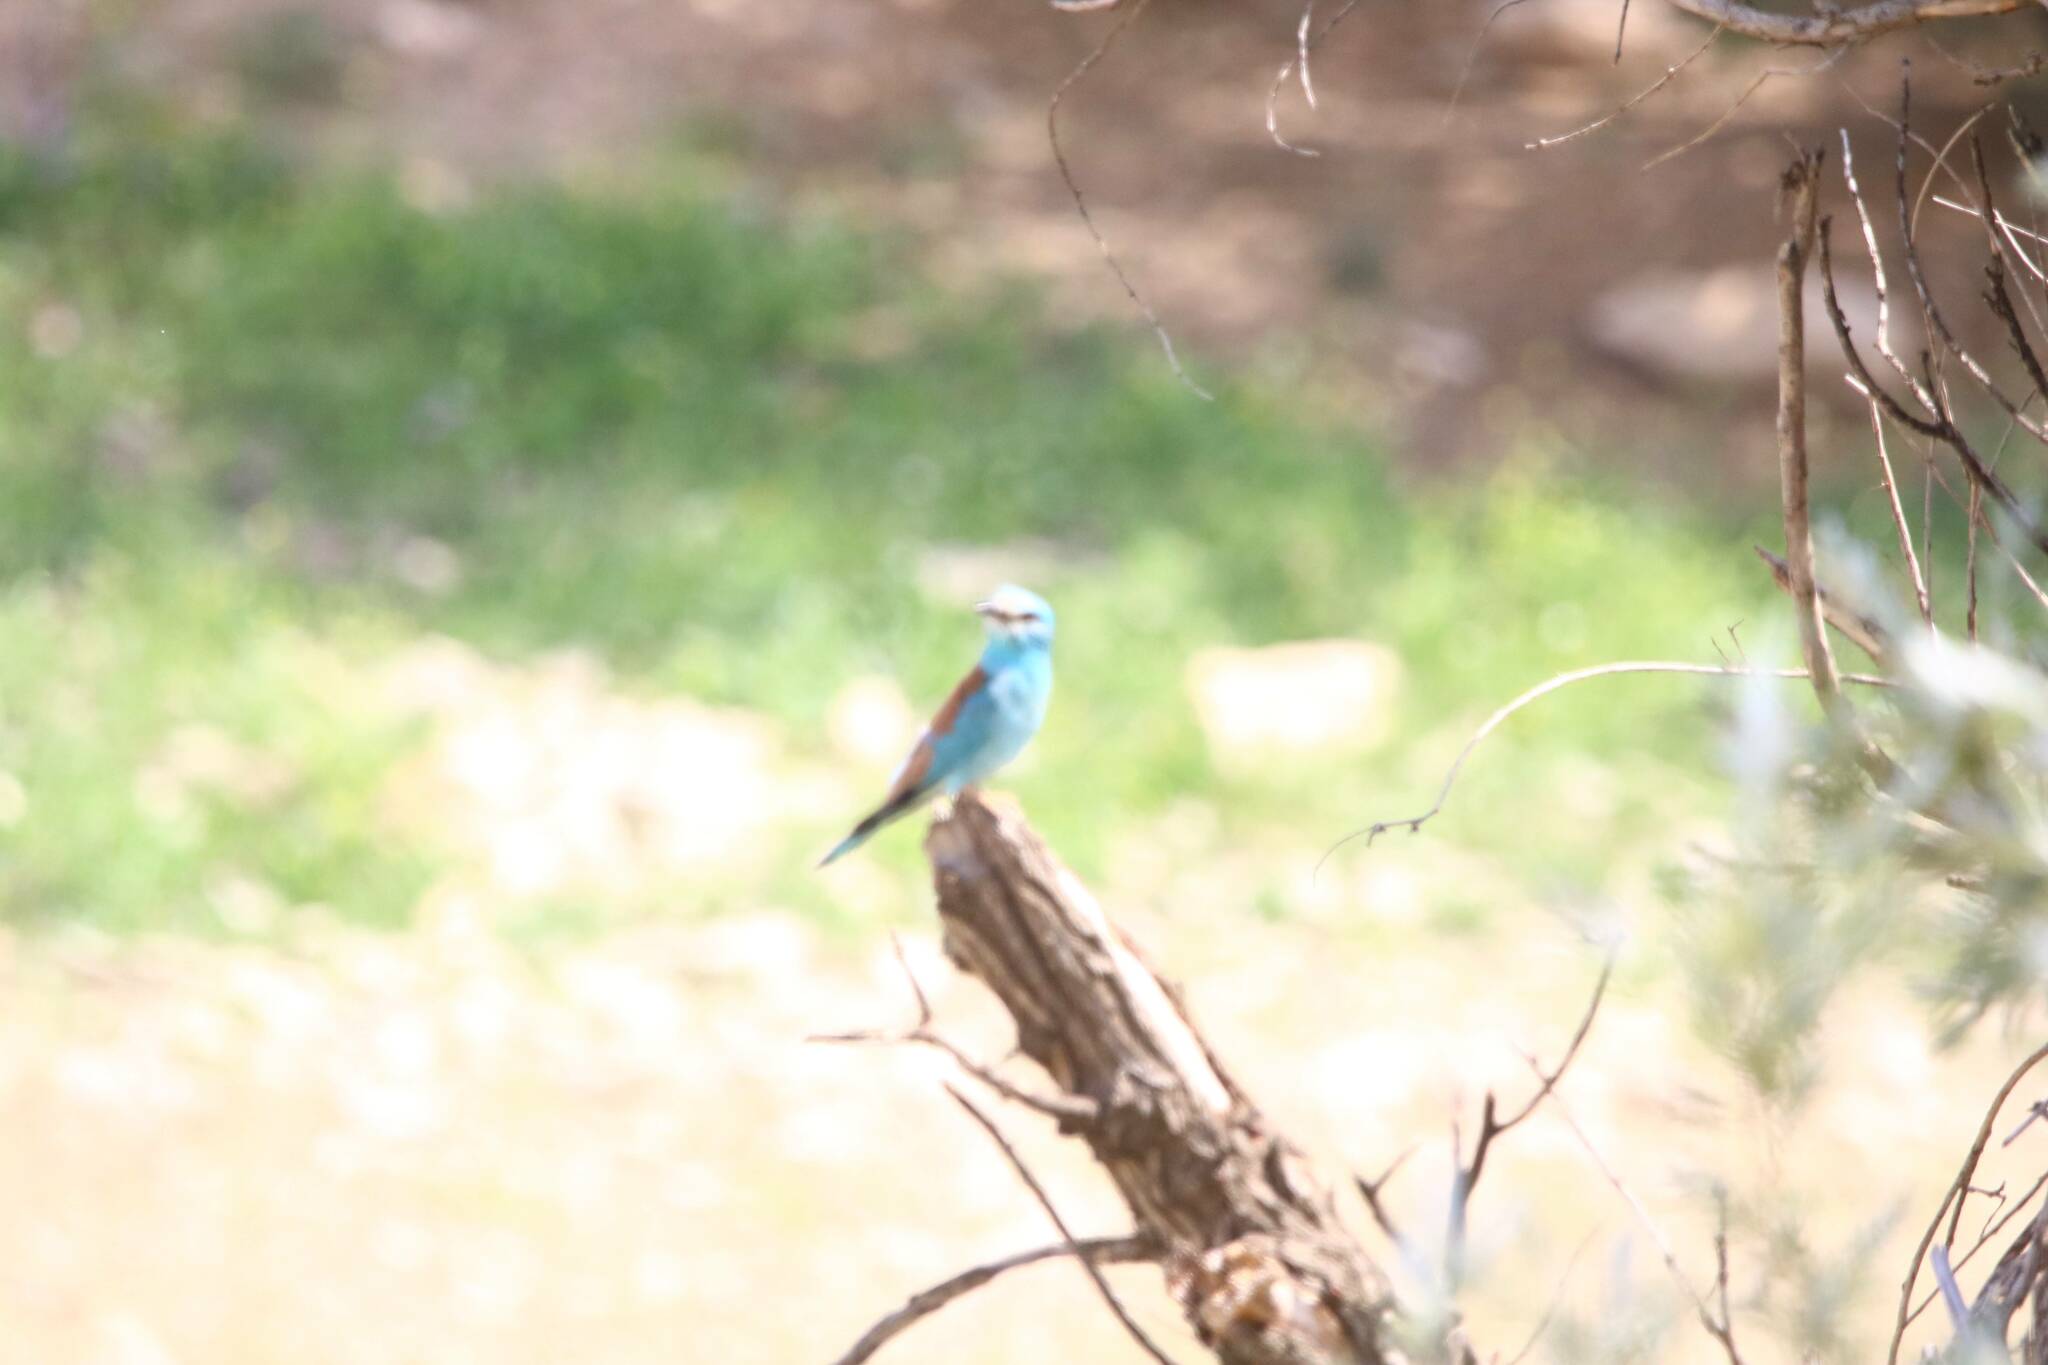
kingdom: Animalia
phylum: Chordata
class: Aves
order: Coraciiformes
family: Coraciidae
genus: Coracias
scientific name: Coracias garrulus
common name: European roller
